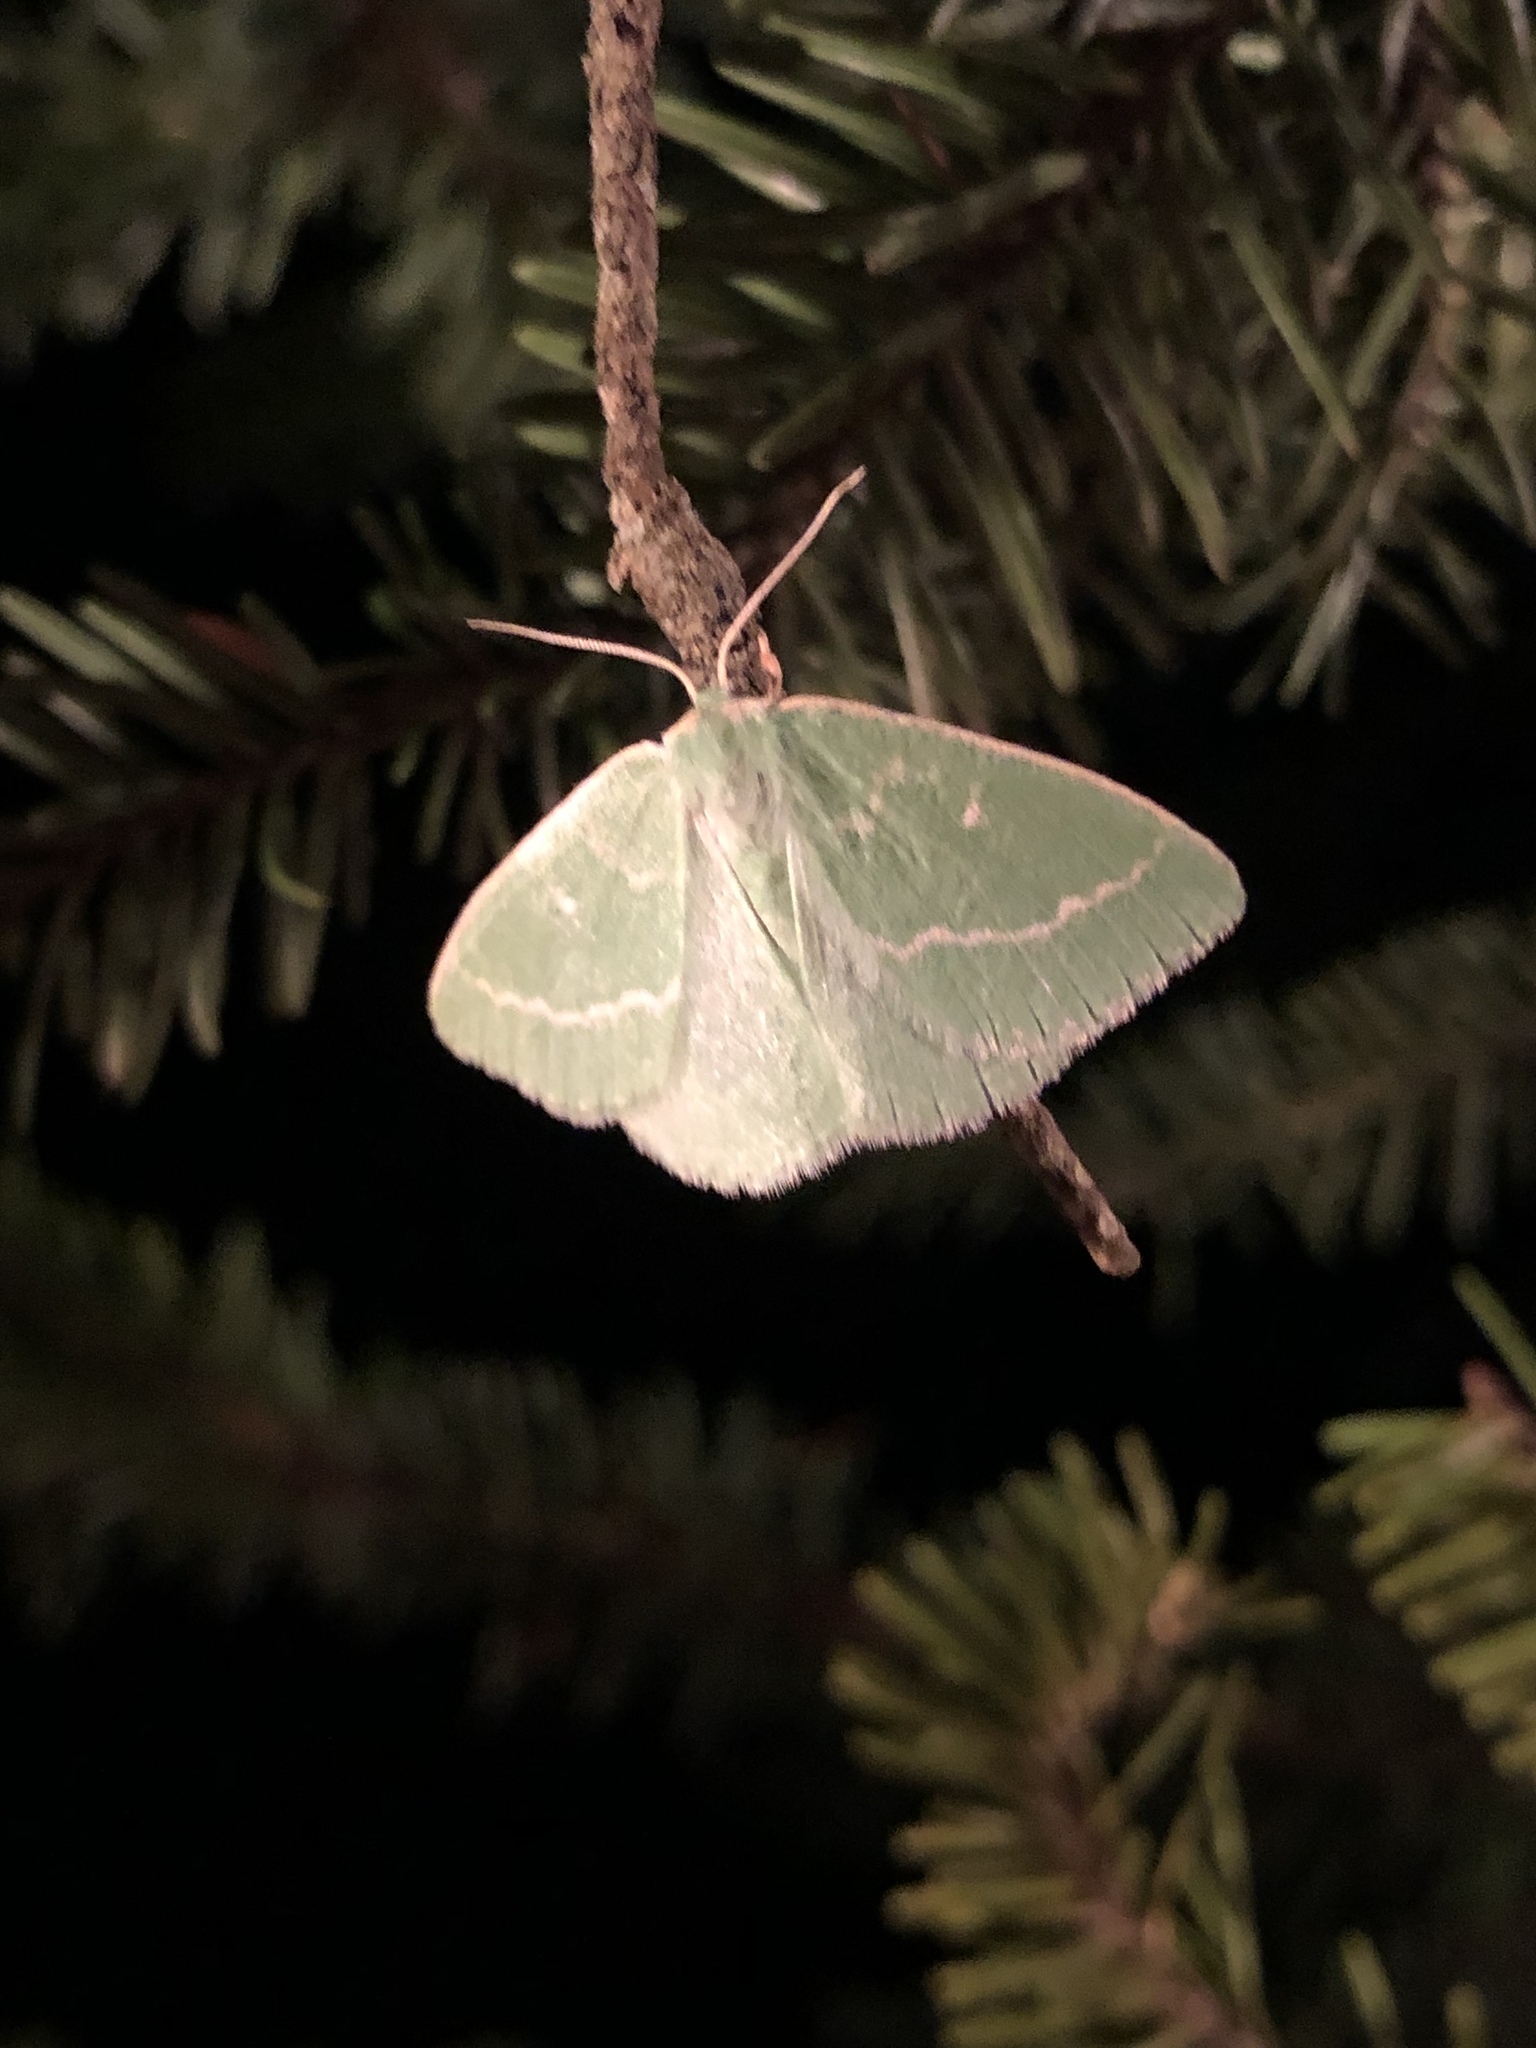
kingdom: Animalia
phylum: Arthropoda
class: Insecta
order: Lepidoptera
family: Geometridae
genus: Thetidia
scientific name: Thetidia smaragdaria
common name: Essex emerald
